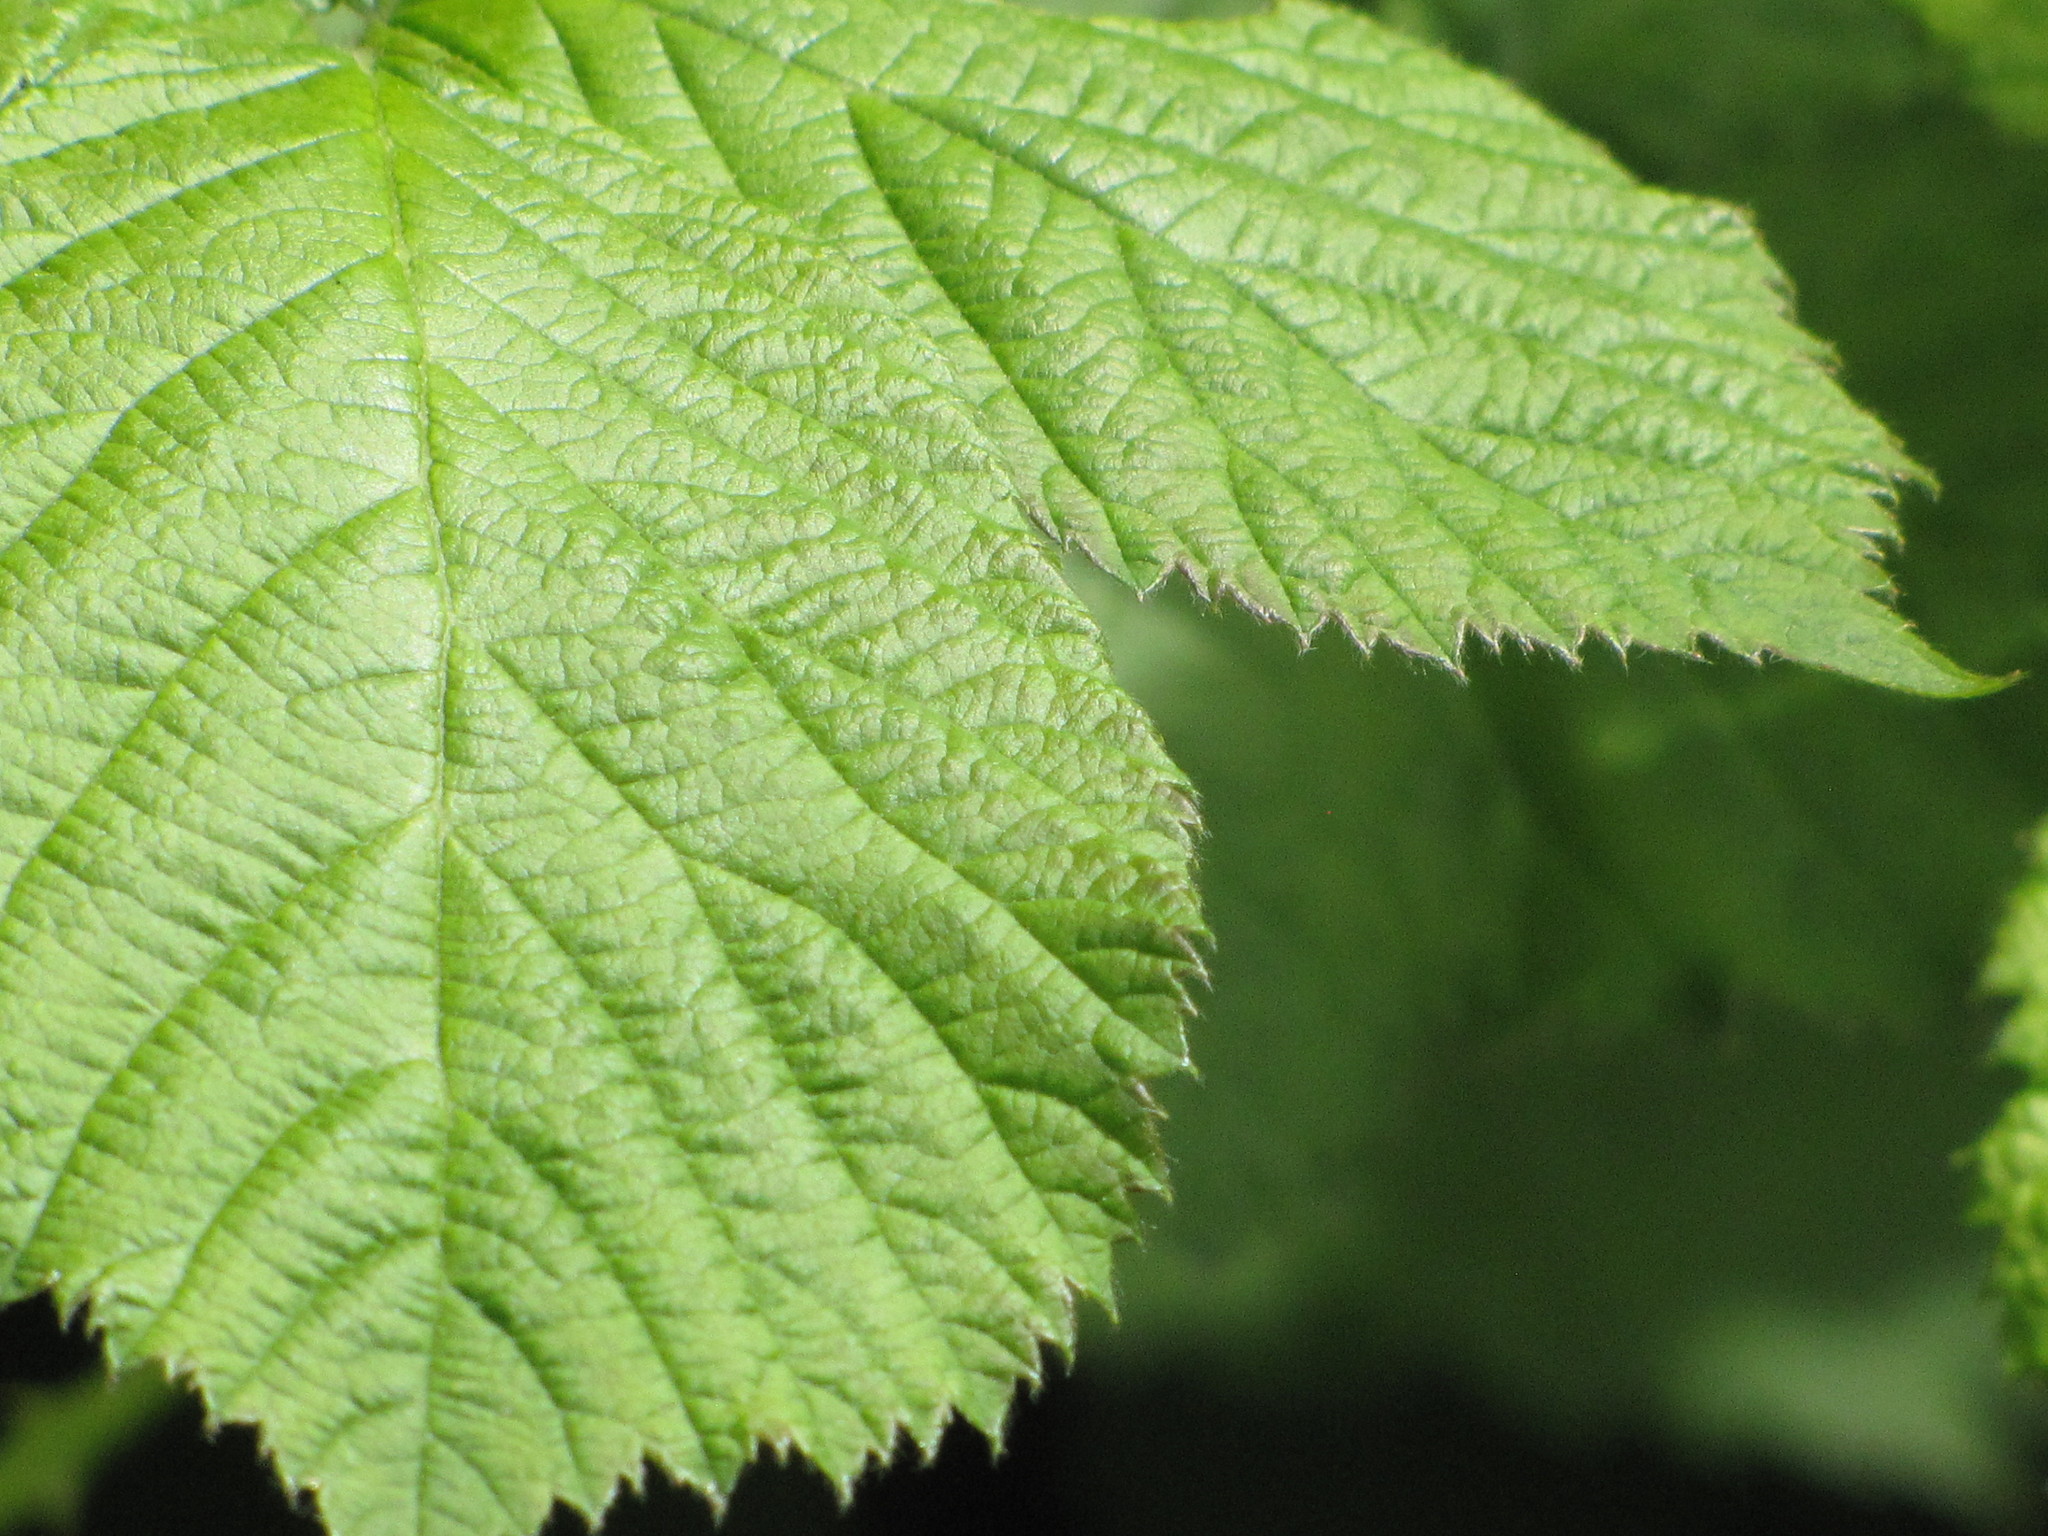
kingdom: Plantae
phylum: Tracheophyta
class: Magnoliopsida
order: Rosales
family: Rosaceae
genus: Rubus
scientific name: Rubus armeniacus
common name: Himalayan blackberry
